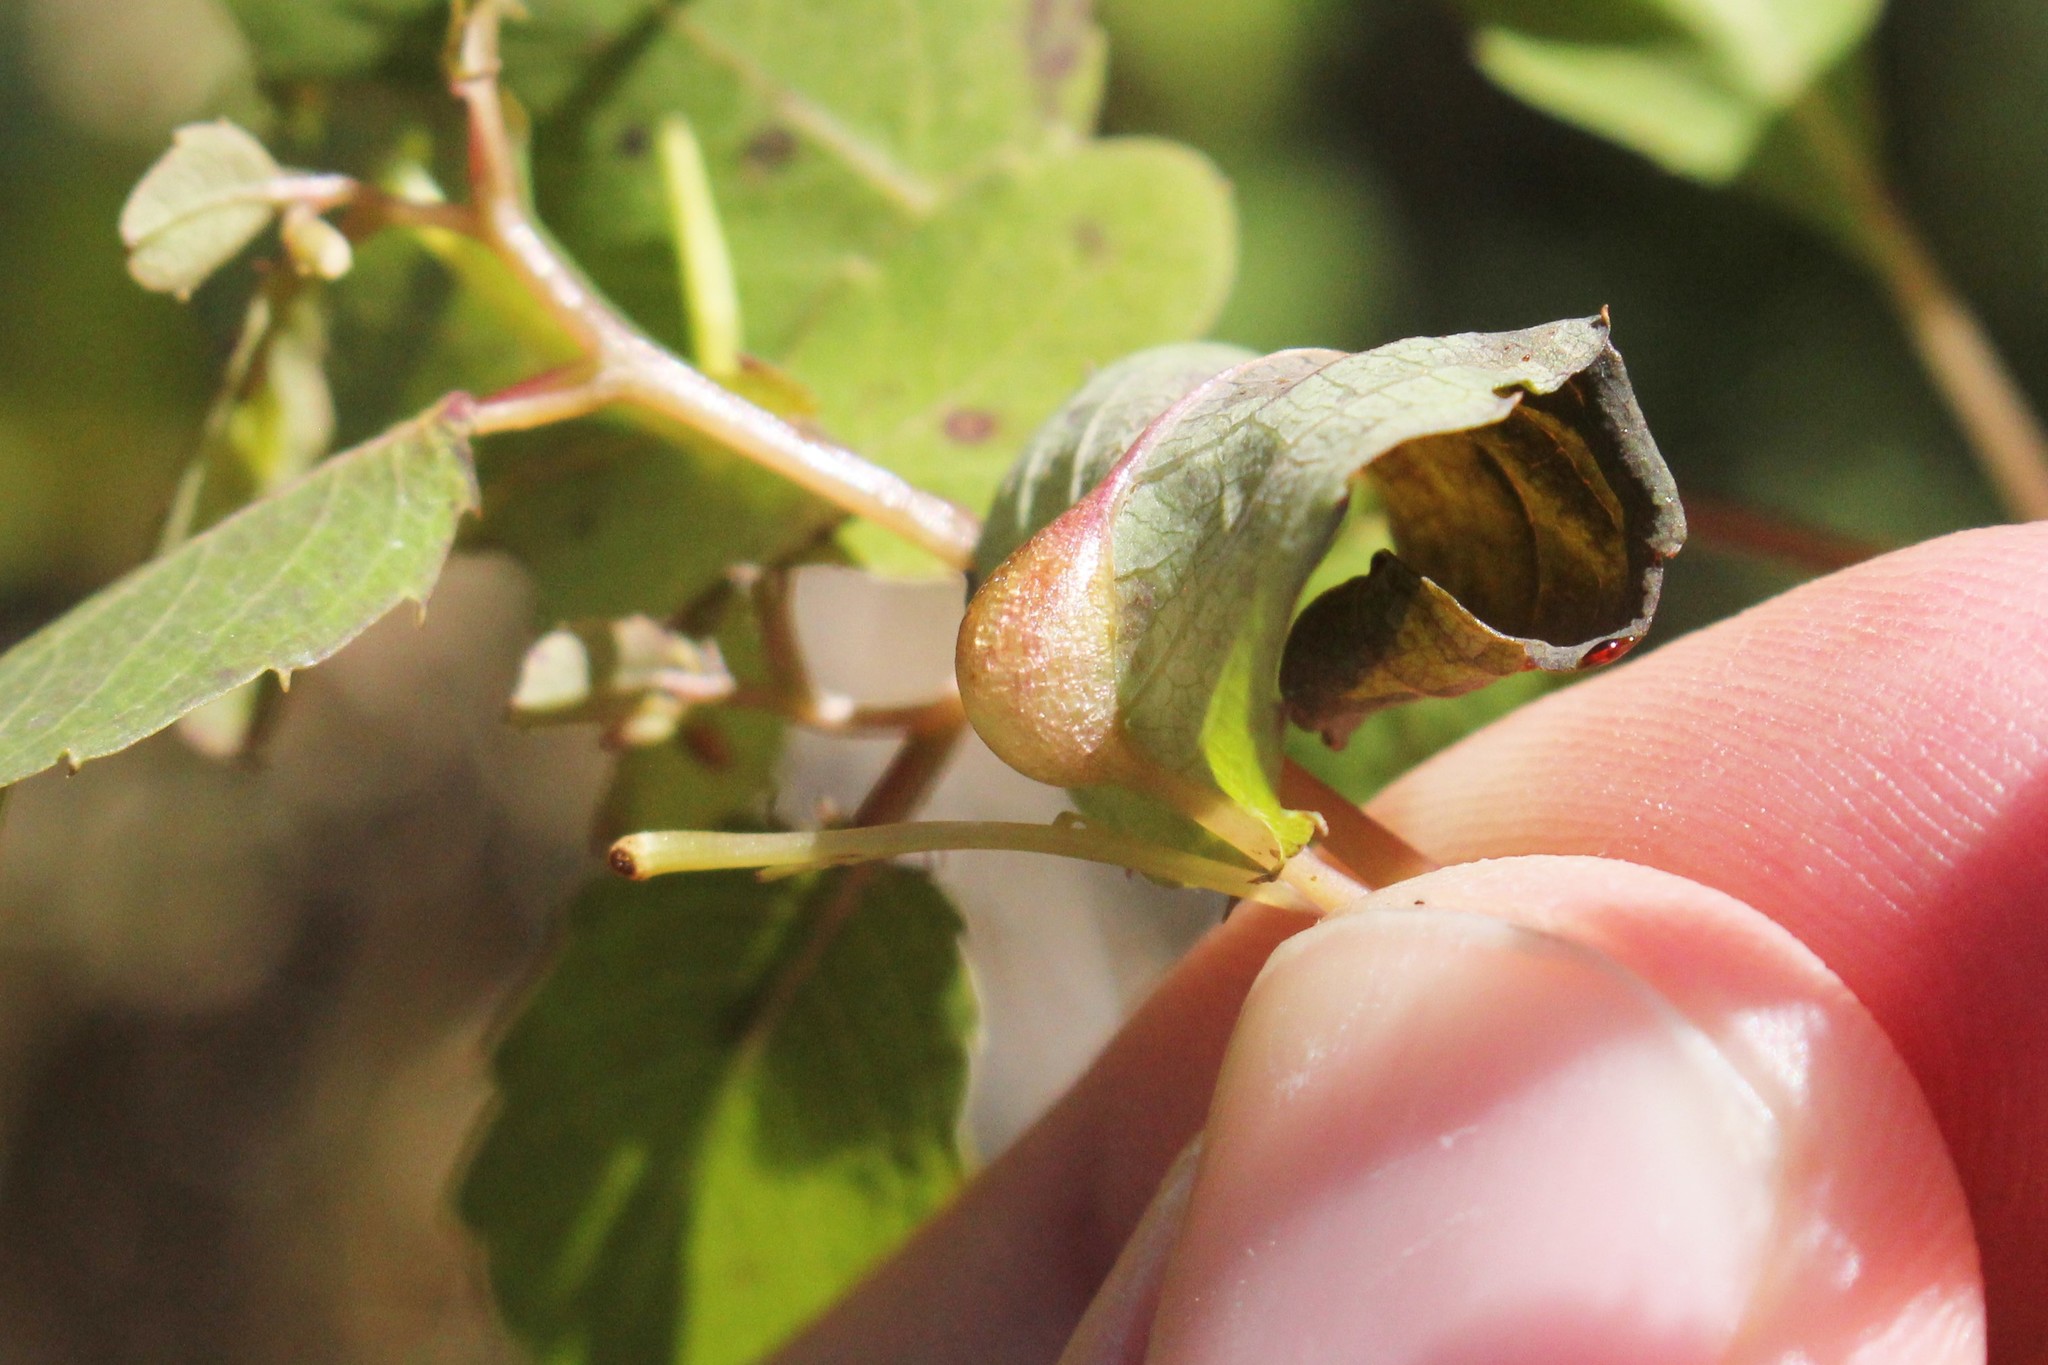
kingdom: Animalia
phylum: Arthropoda
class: Insecta
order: Diptera
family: Cecidomyiidae
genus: Neolasioptera
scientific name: Neolasioptera impatientifolia
